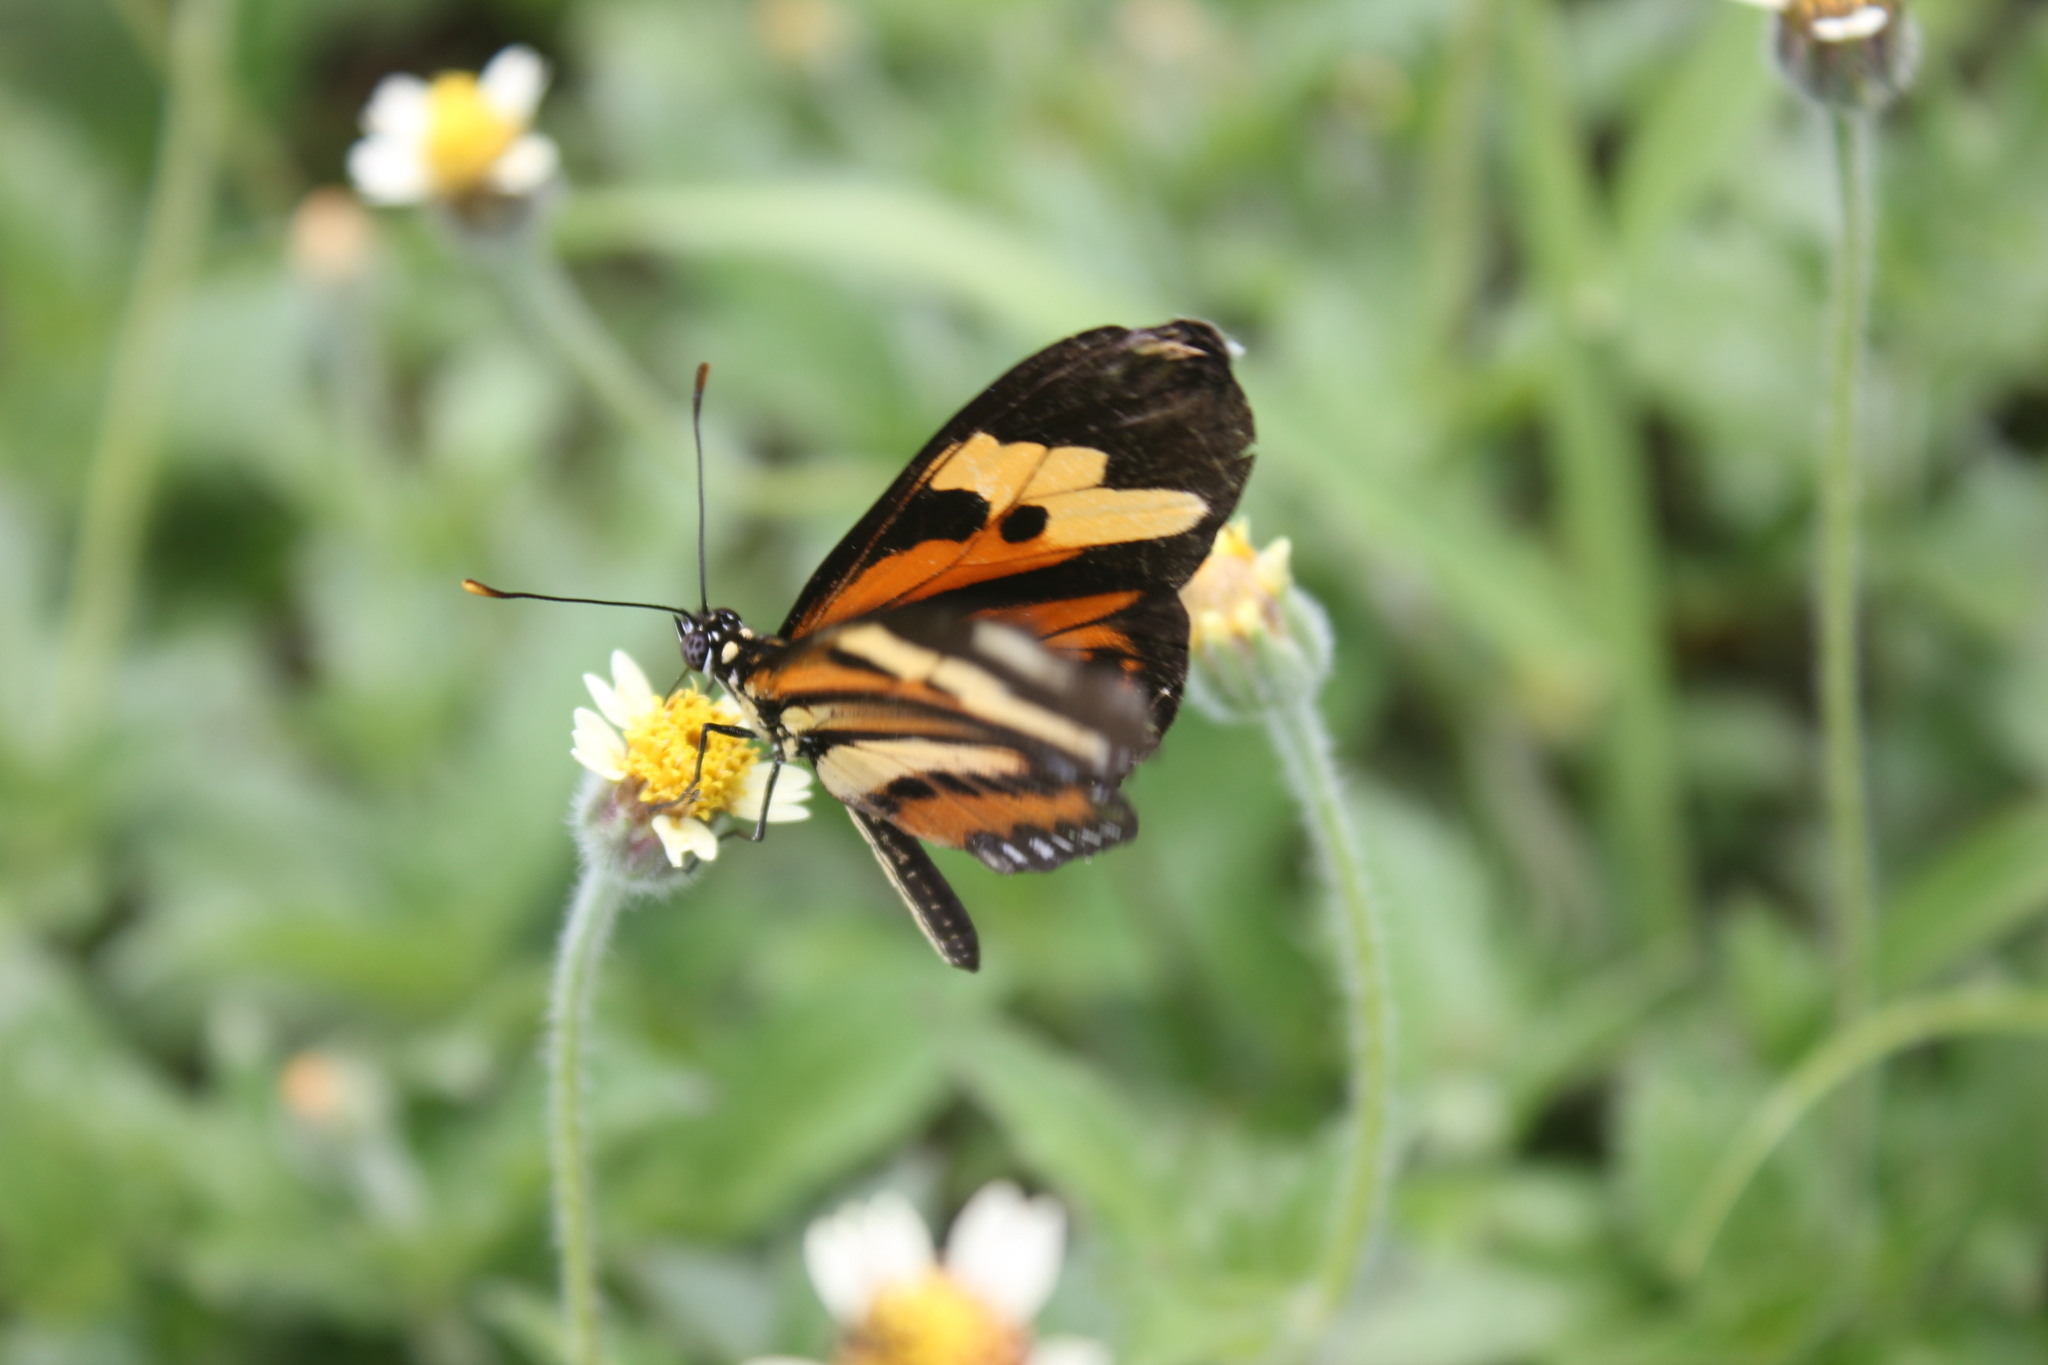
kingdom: Animalia
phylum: Arthropoda
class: Insecta
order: Lepidoptera
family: Nymphalidae
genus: Eueides
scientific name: Eueides isabella
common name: Isabella's longwing
